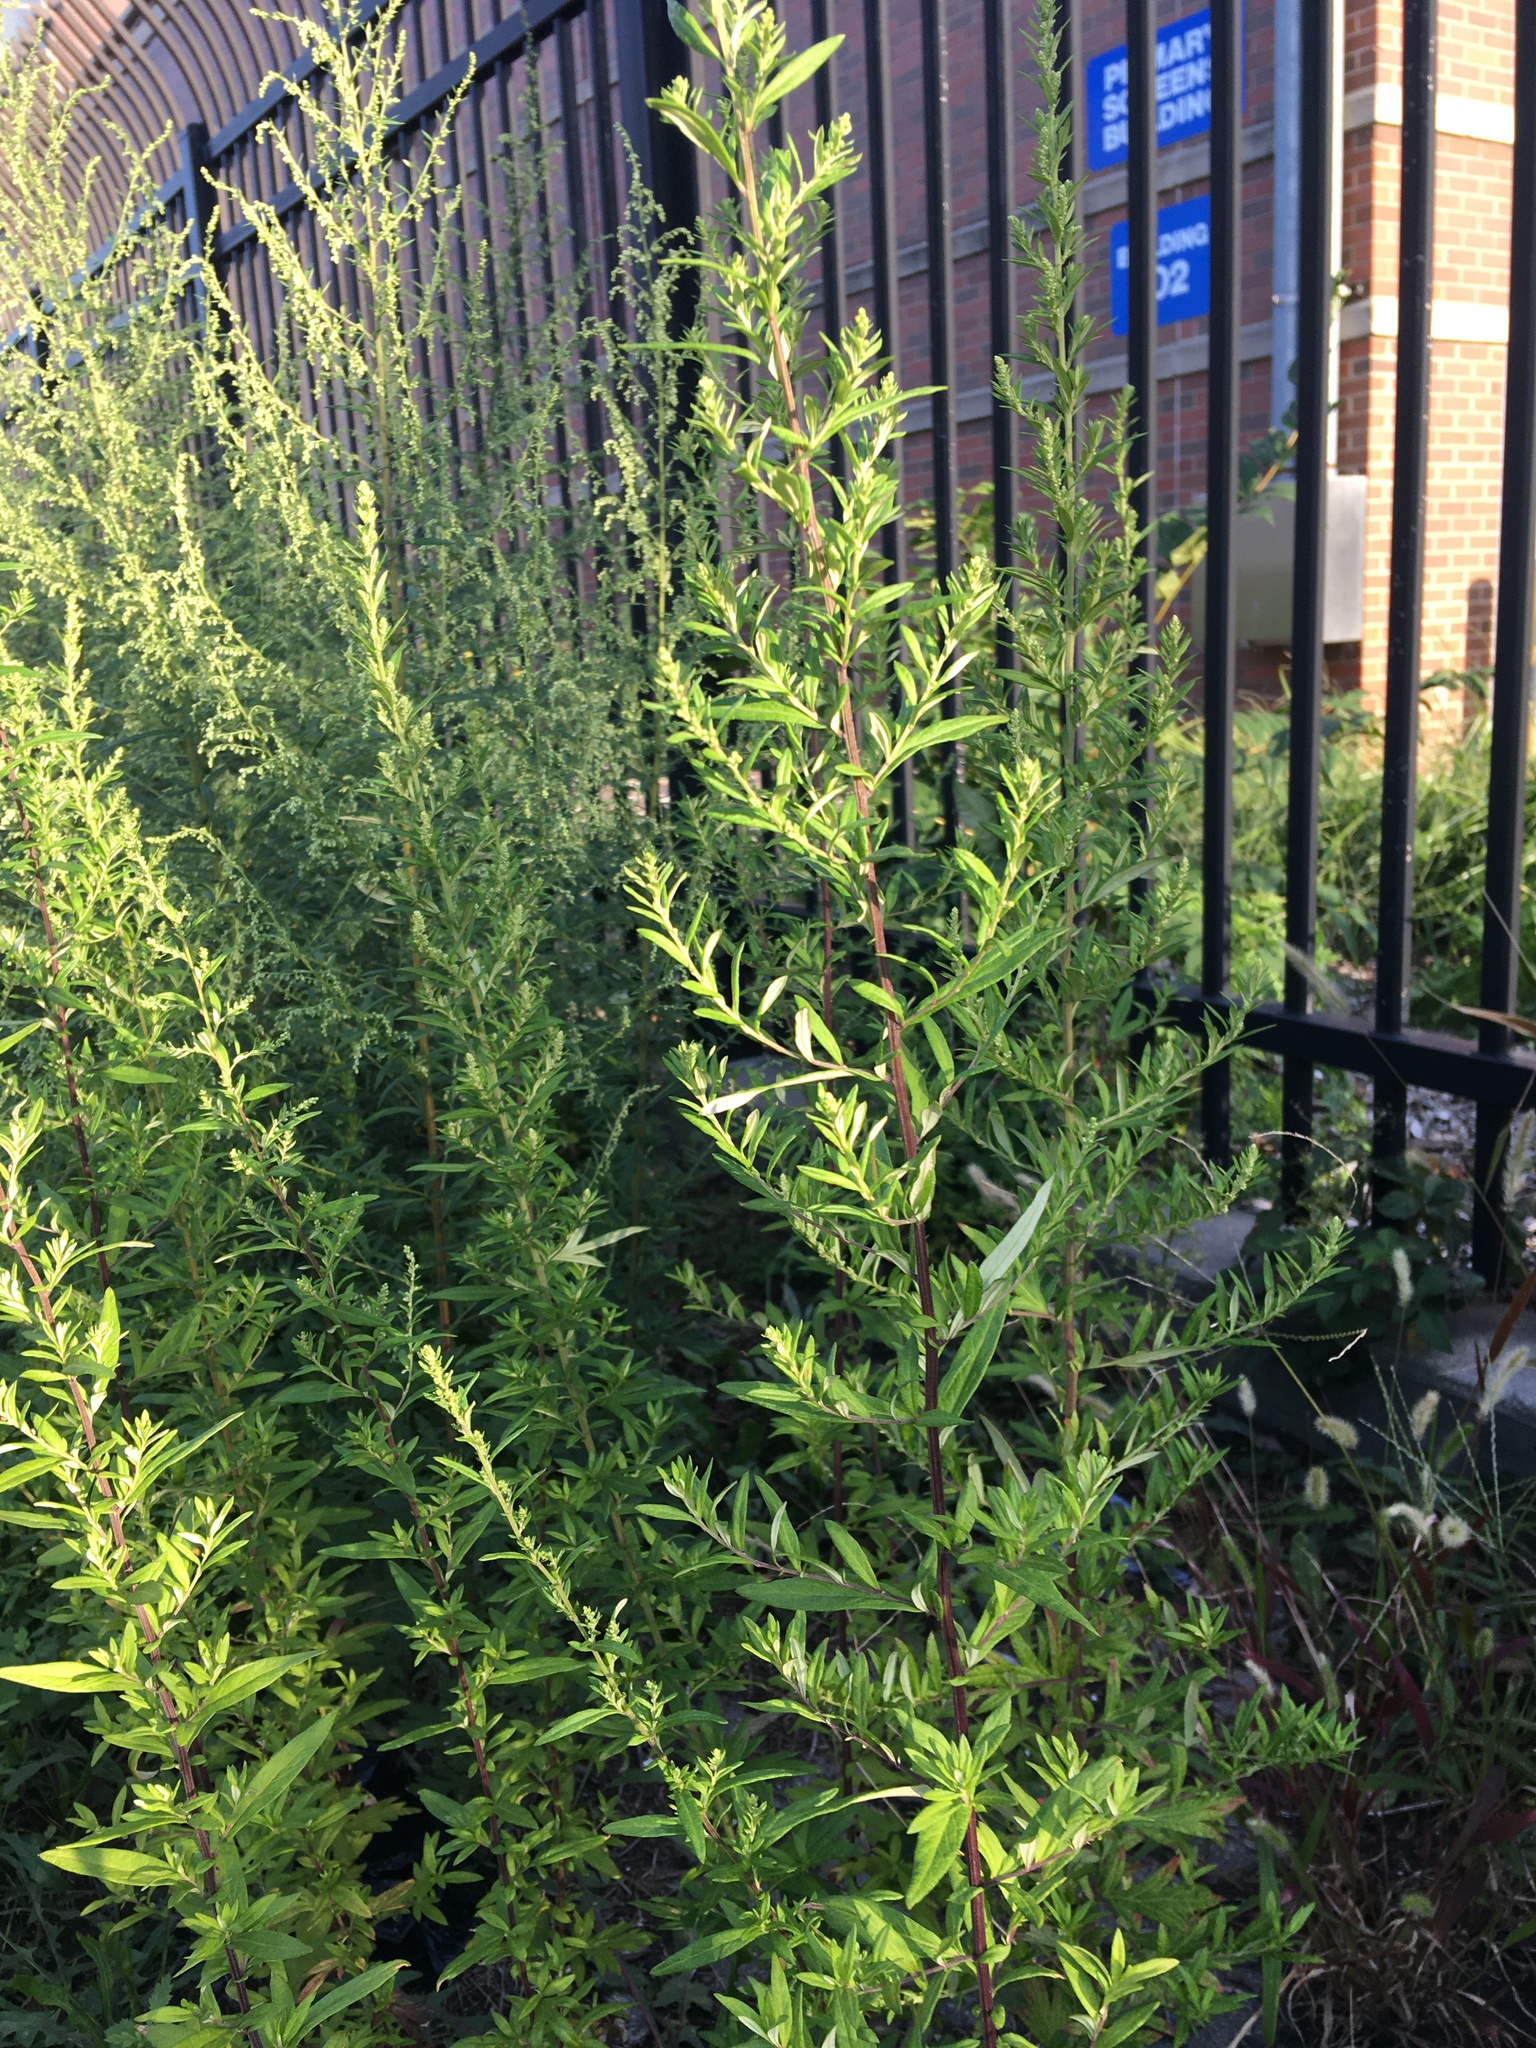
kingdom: Plantae
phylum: Tracheophyta
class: Magnoliopsida
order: Asterales
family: Asteraceae
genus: Artemisia
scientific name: Artemisia vulgaris
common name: Mugwort
